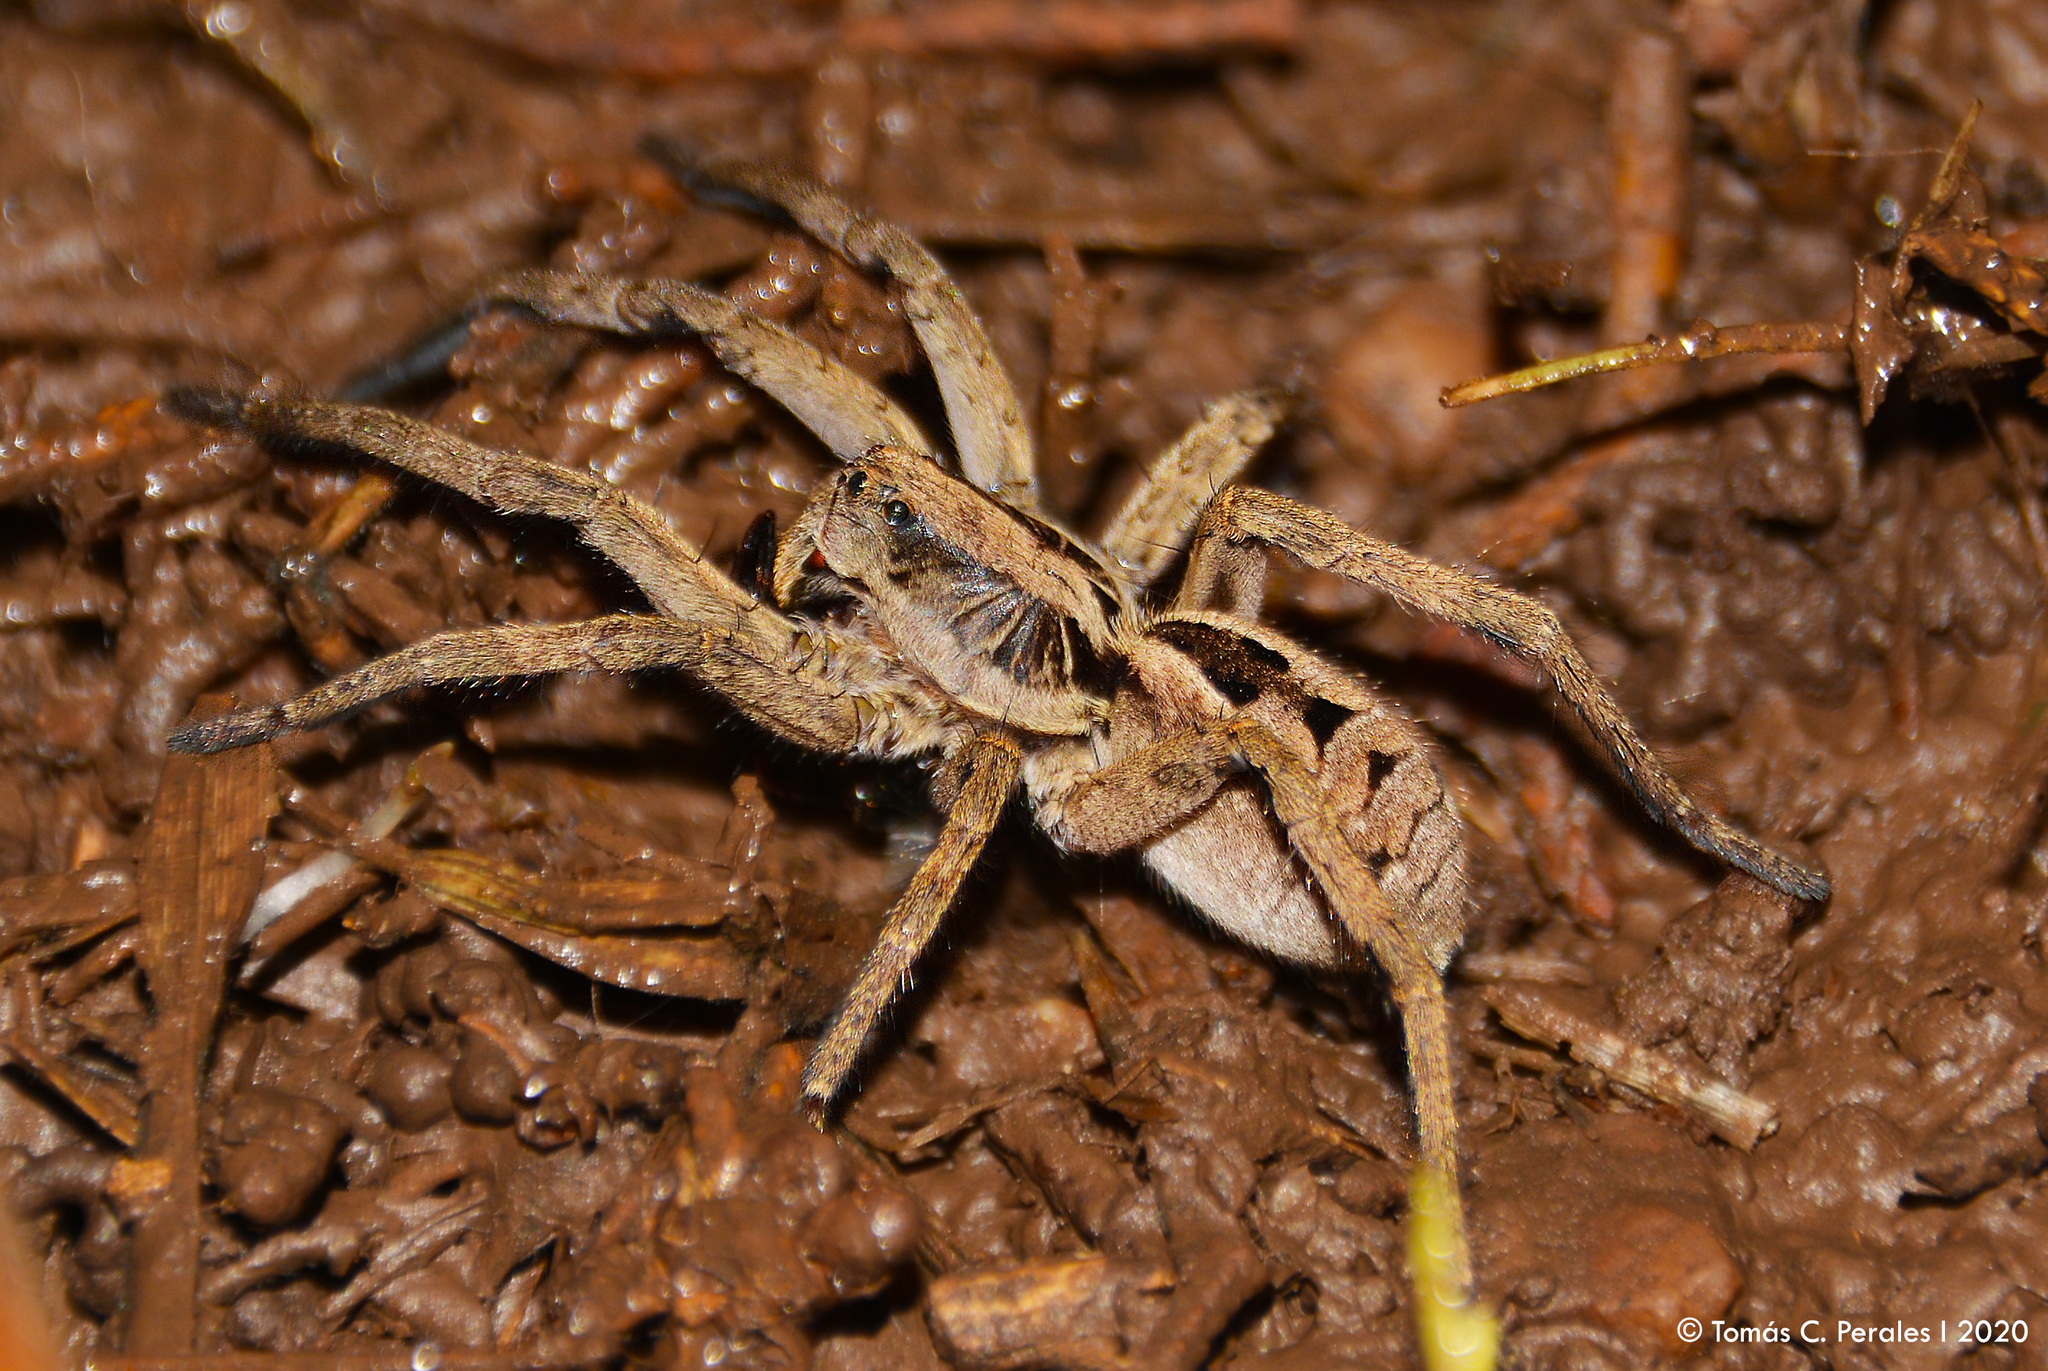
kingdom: Animalia
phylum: Arthropoda
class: Arachnida
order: Araneae
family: Lycosidae
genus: Lycosa
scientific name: Lycosa erythrognatha
